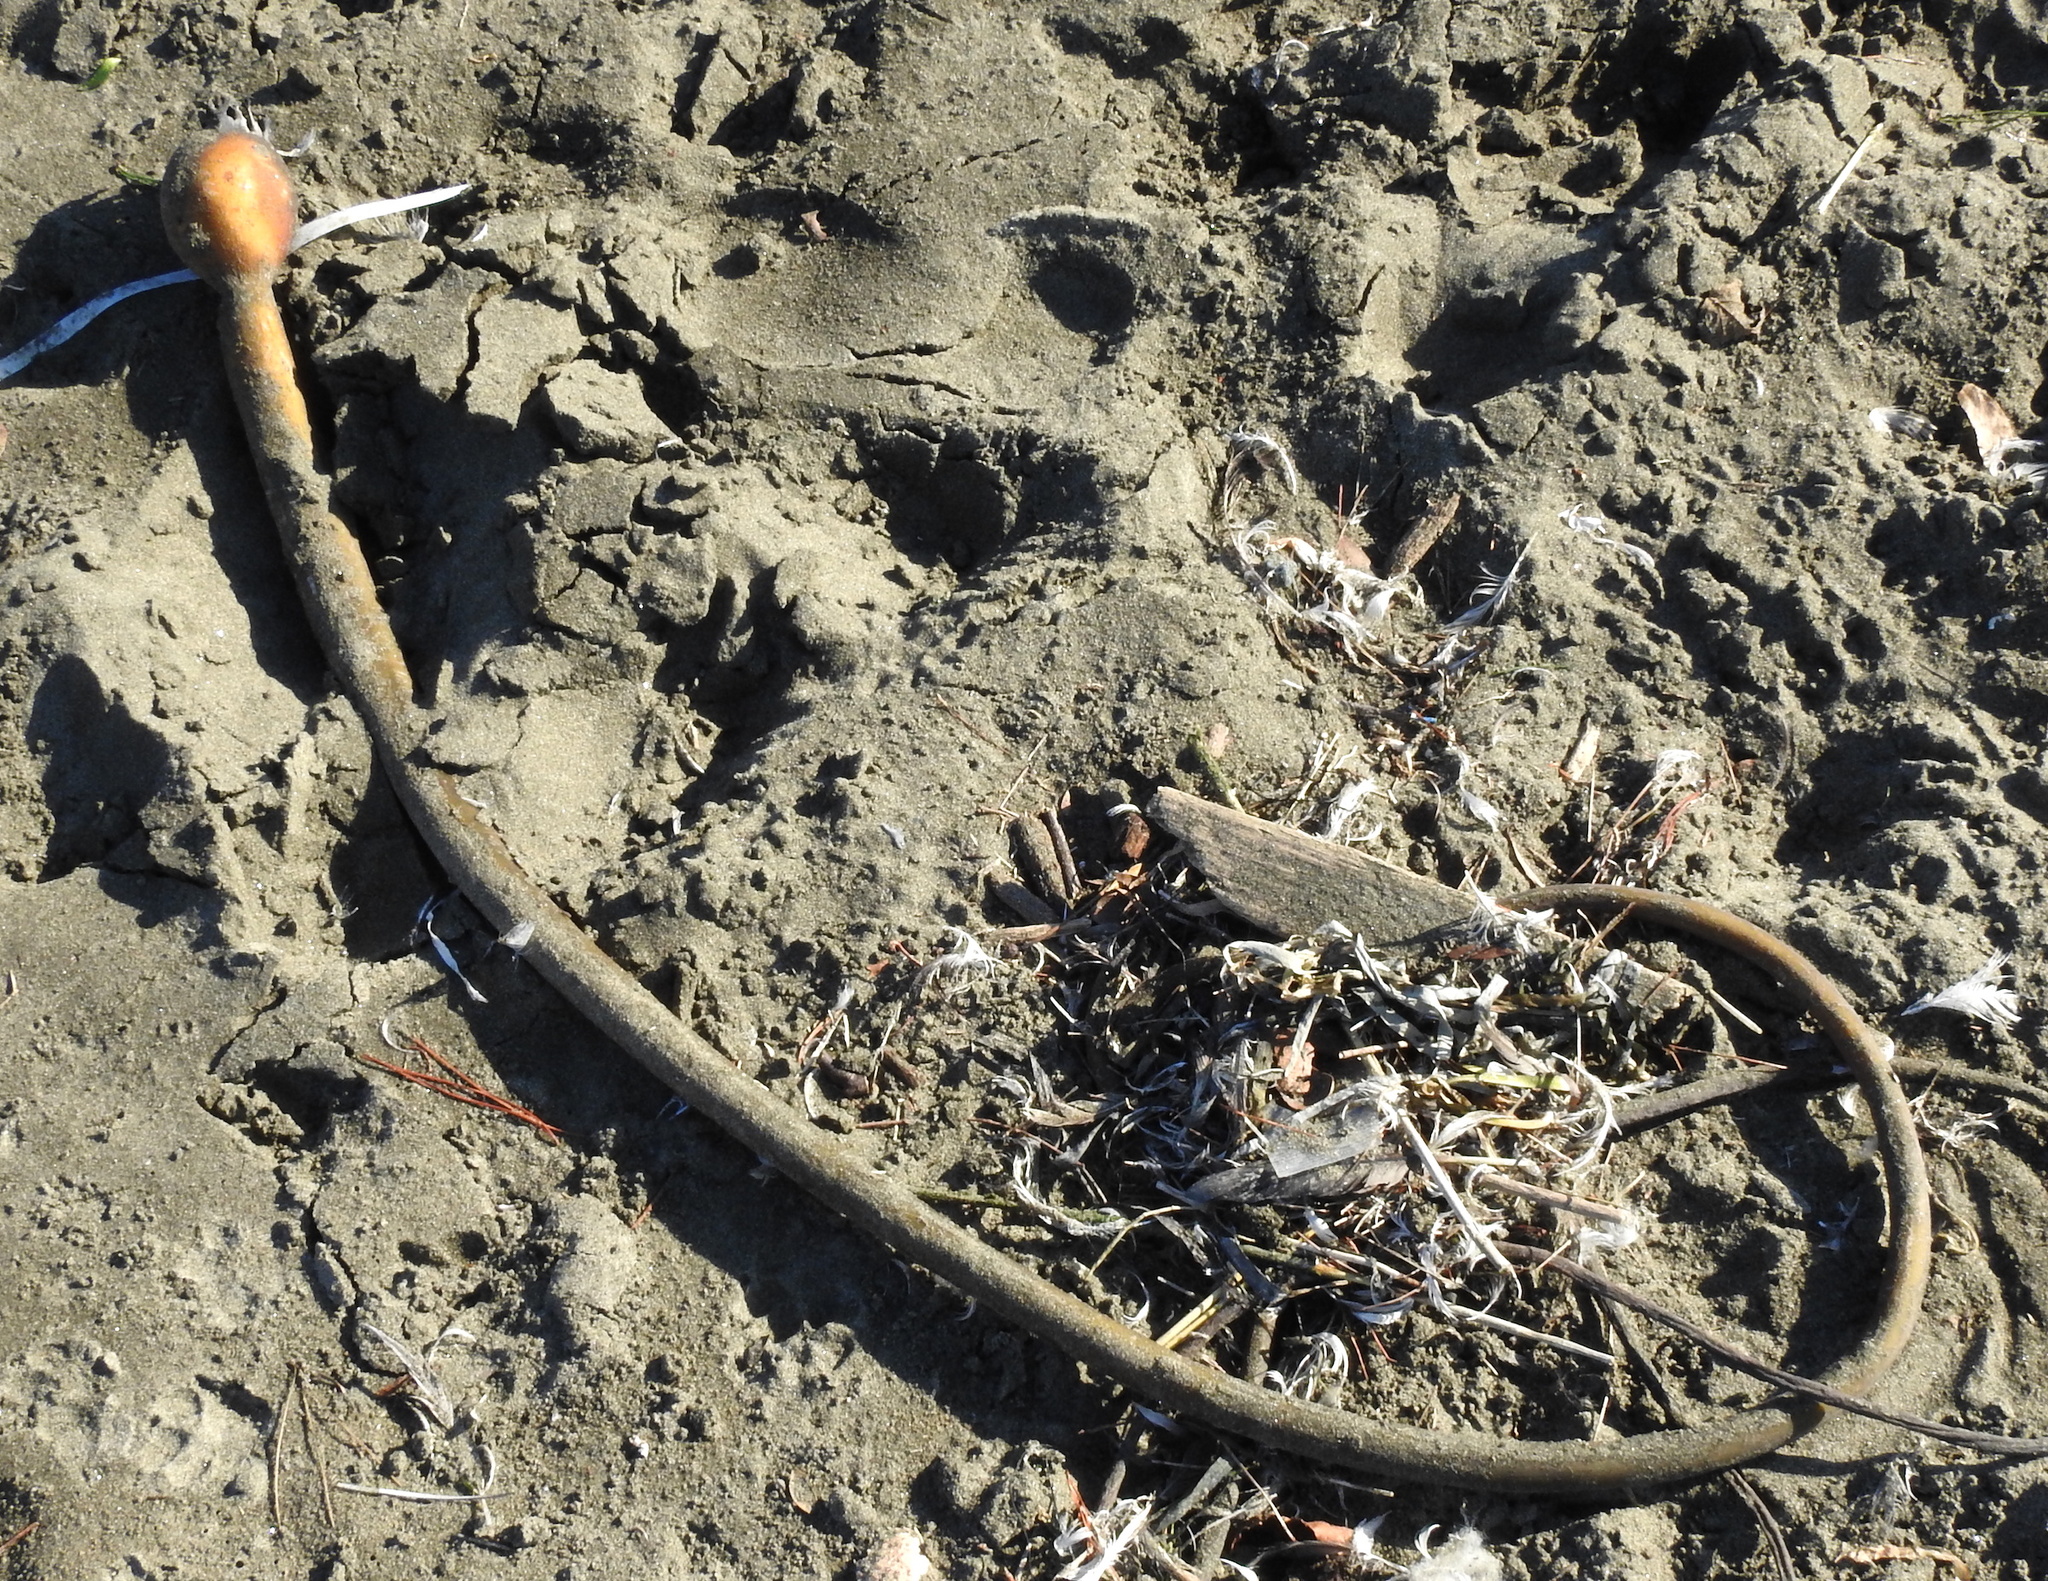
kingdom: Chromista
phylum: Ochrophyta
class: Phaeophyceae
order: Laminariales
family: Laminariaceae
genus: Nereocystis
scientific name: Nereocystis luetkeana
